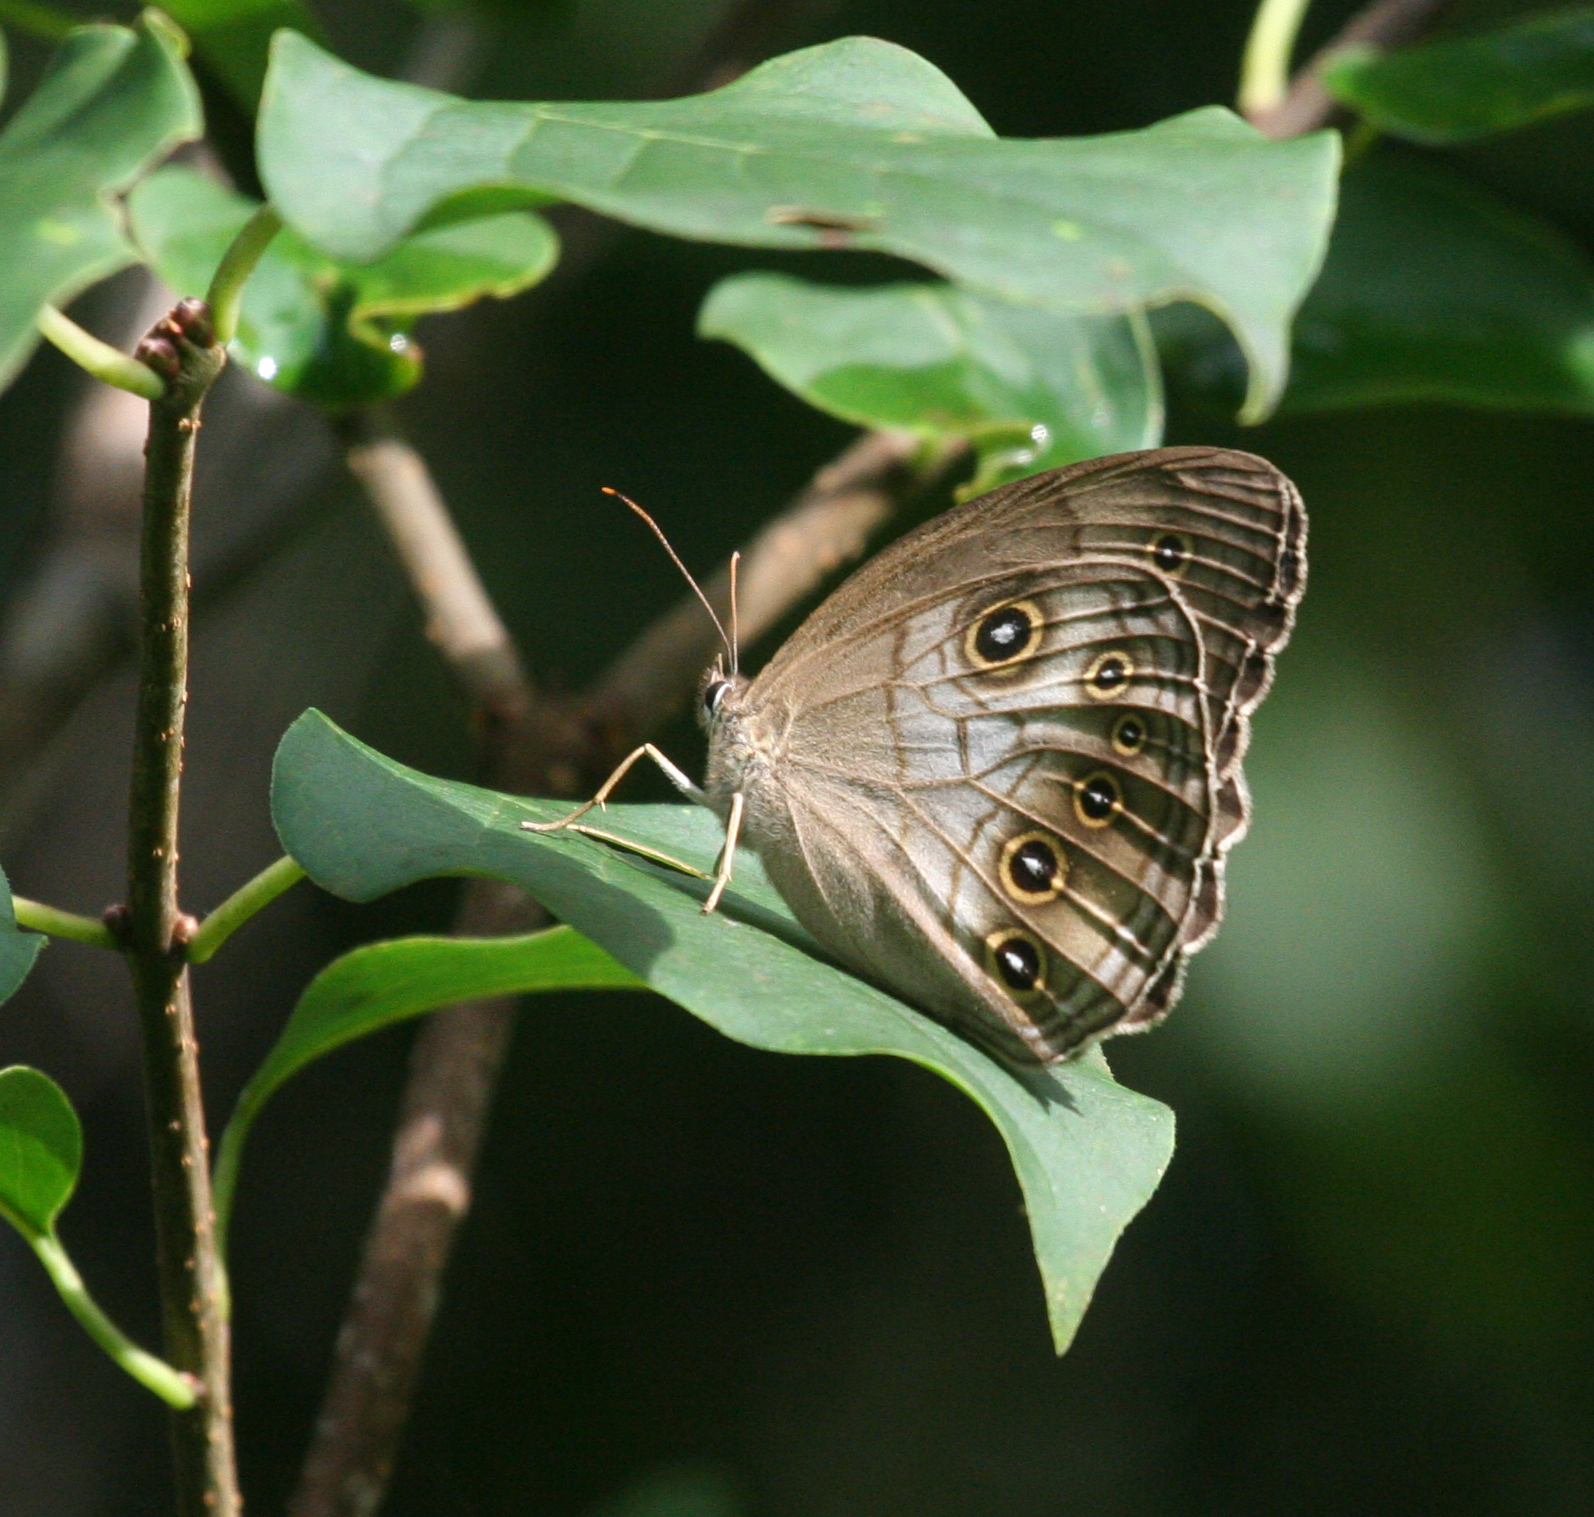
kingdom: Animalia
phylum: Arthropoda
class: Insecta
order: Lepidoptera
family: Nymphalidae
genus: Ninguta
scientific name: Ninguta schrenckii
